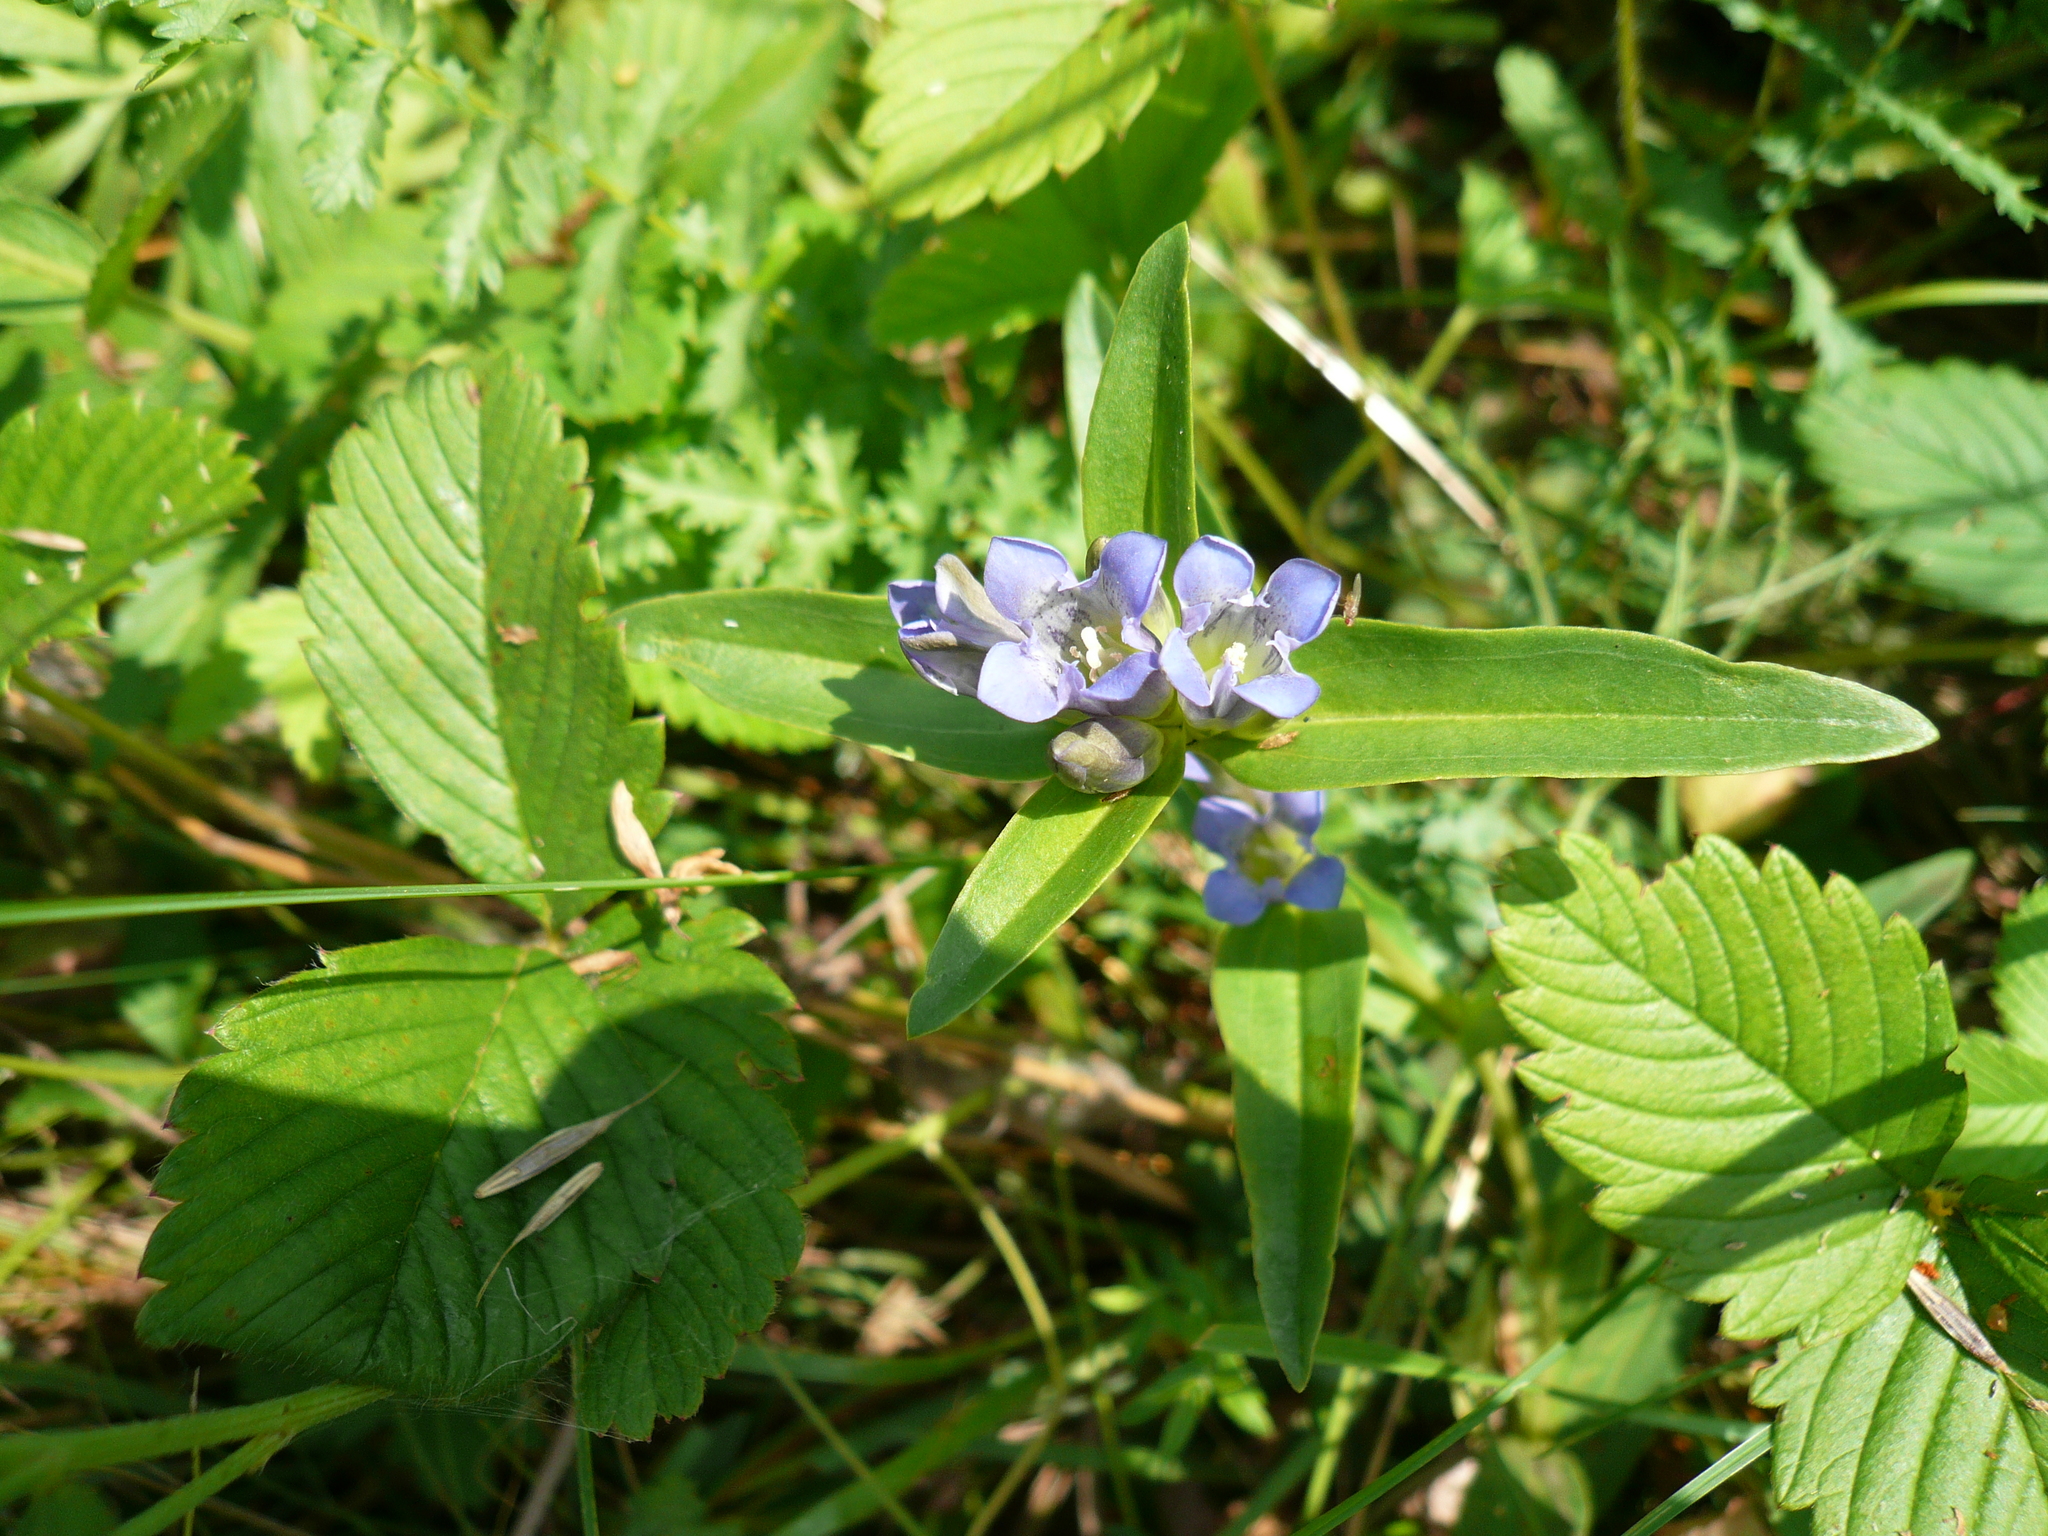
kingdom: Plantae
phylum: Tracheophyta
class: Magnoliopsida
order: Gentianales
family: Gentianaceae
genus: Gentiana
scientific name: Gentiana cruciata
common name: Cross gentian
